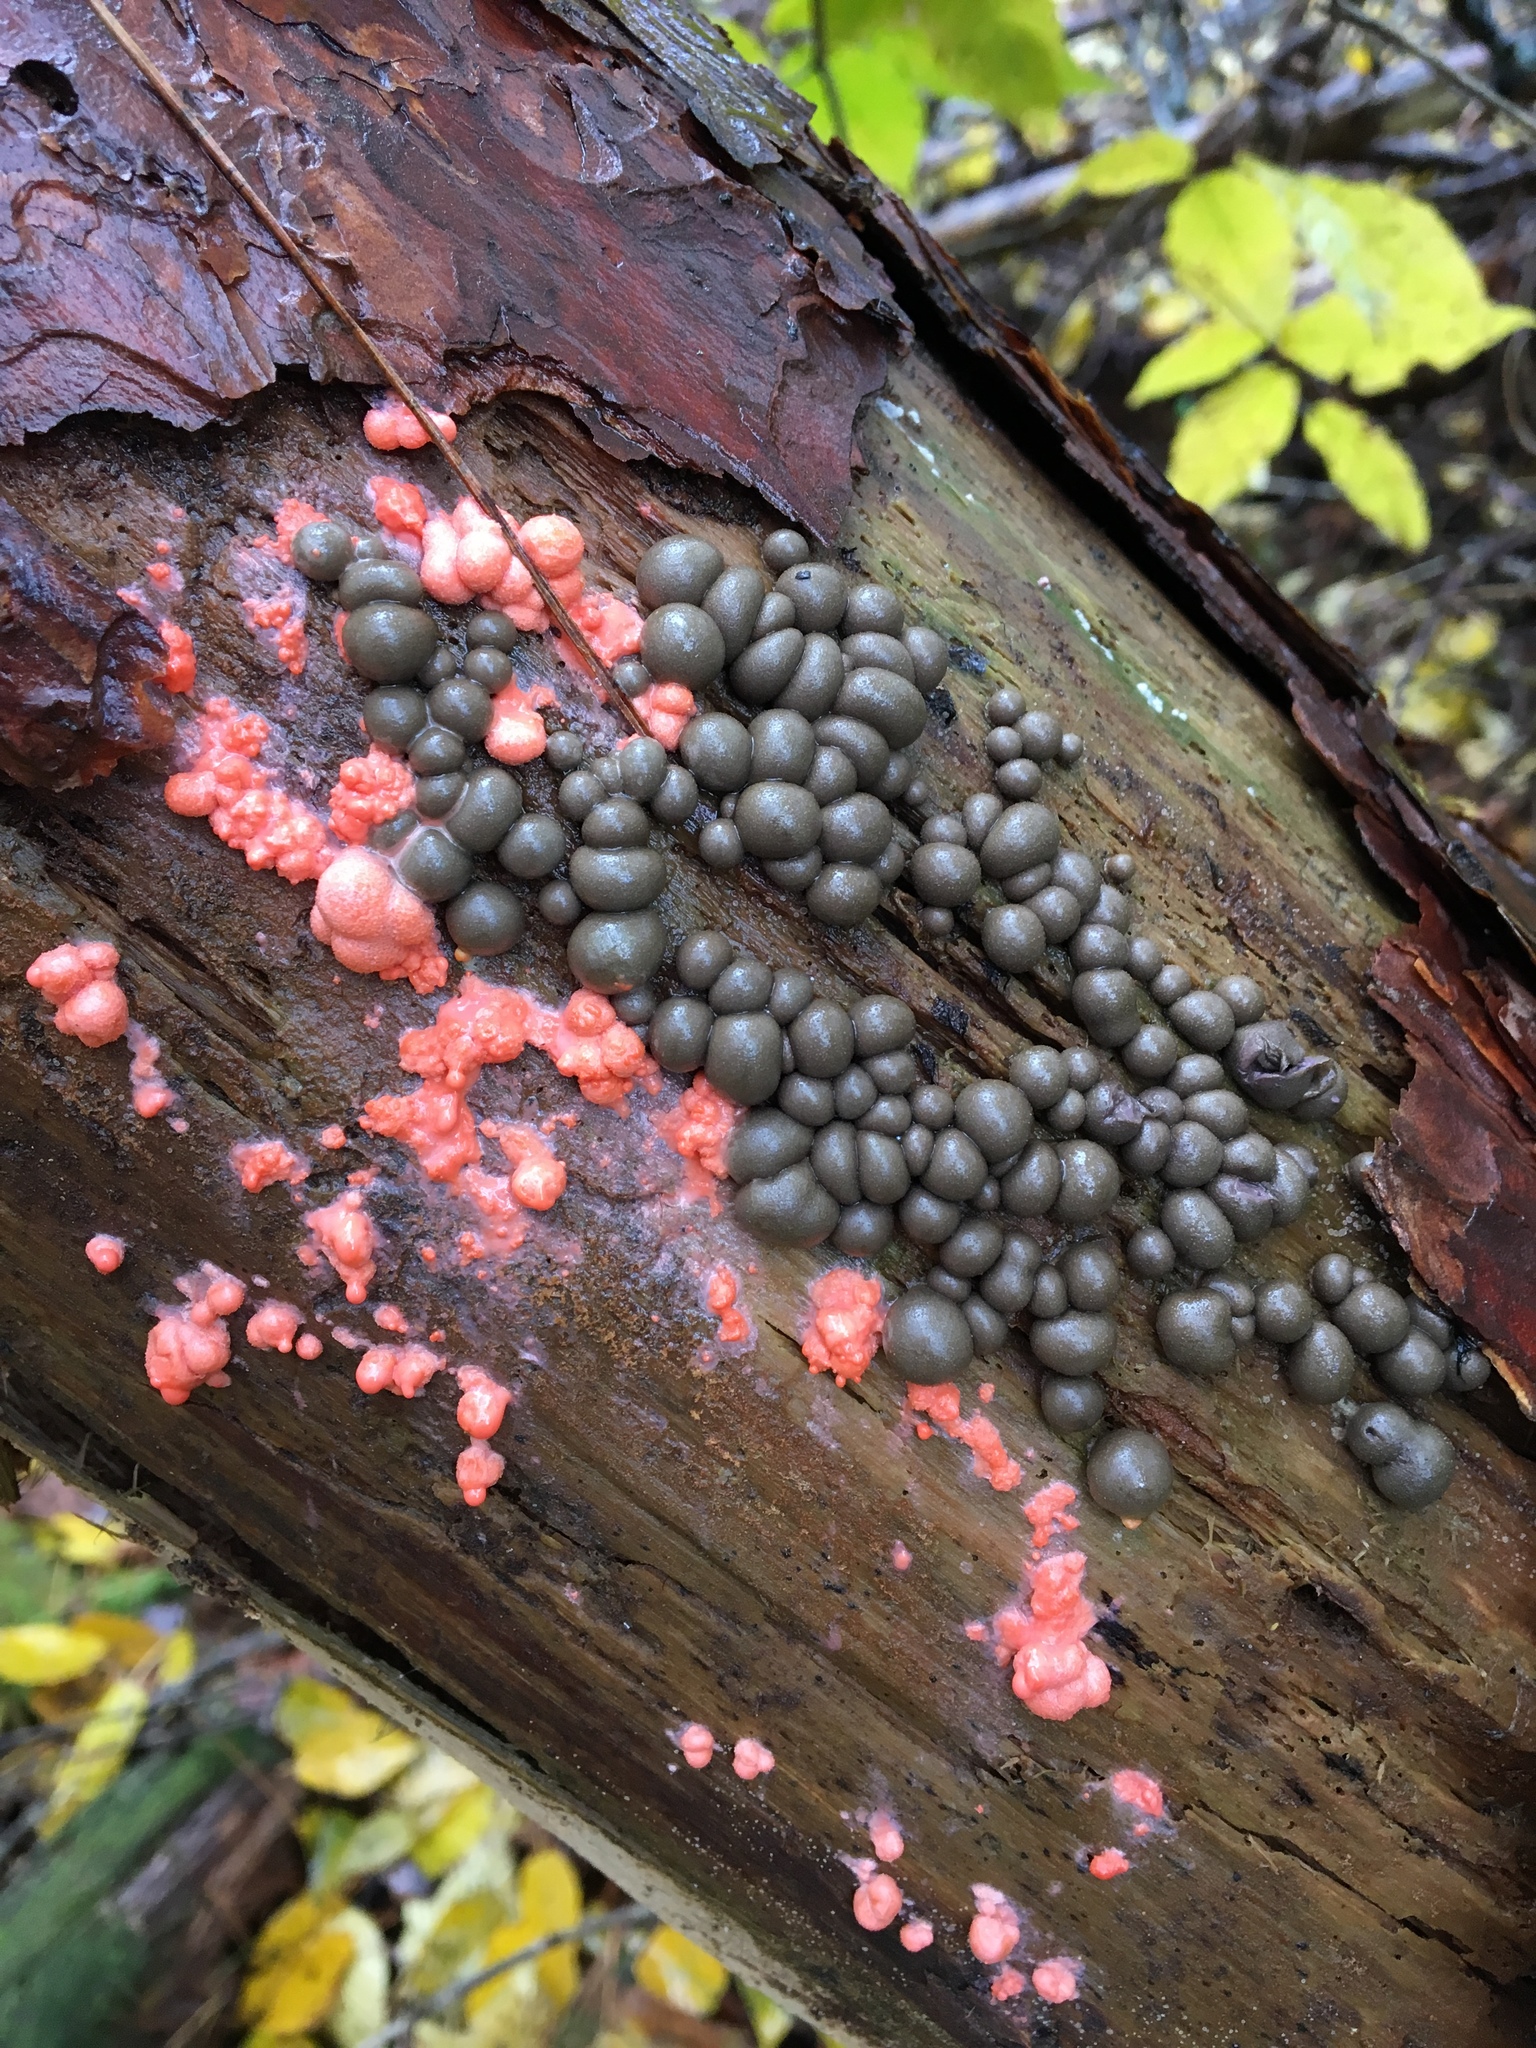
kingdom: Protozoa
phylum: Mycetozoa
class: Myxomycetes
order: Cribrariales
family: Tubiferaceae
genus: Lycogala
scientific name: Lycogala epidendrum
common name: Wolf's milk
